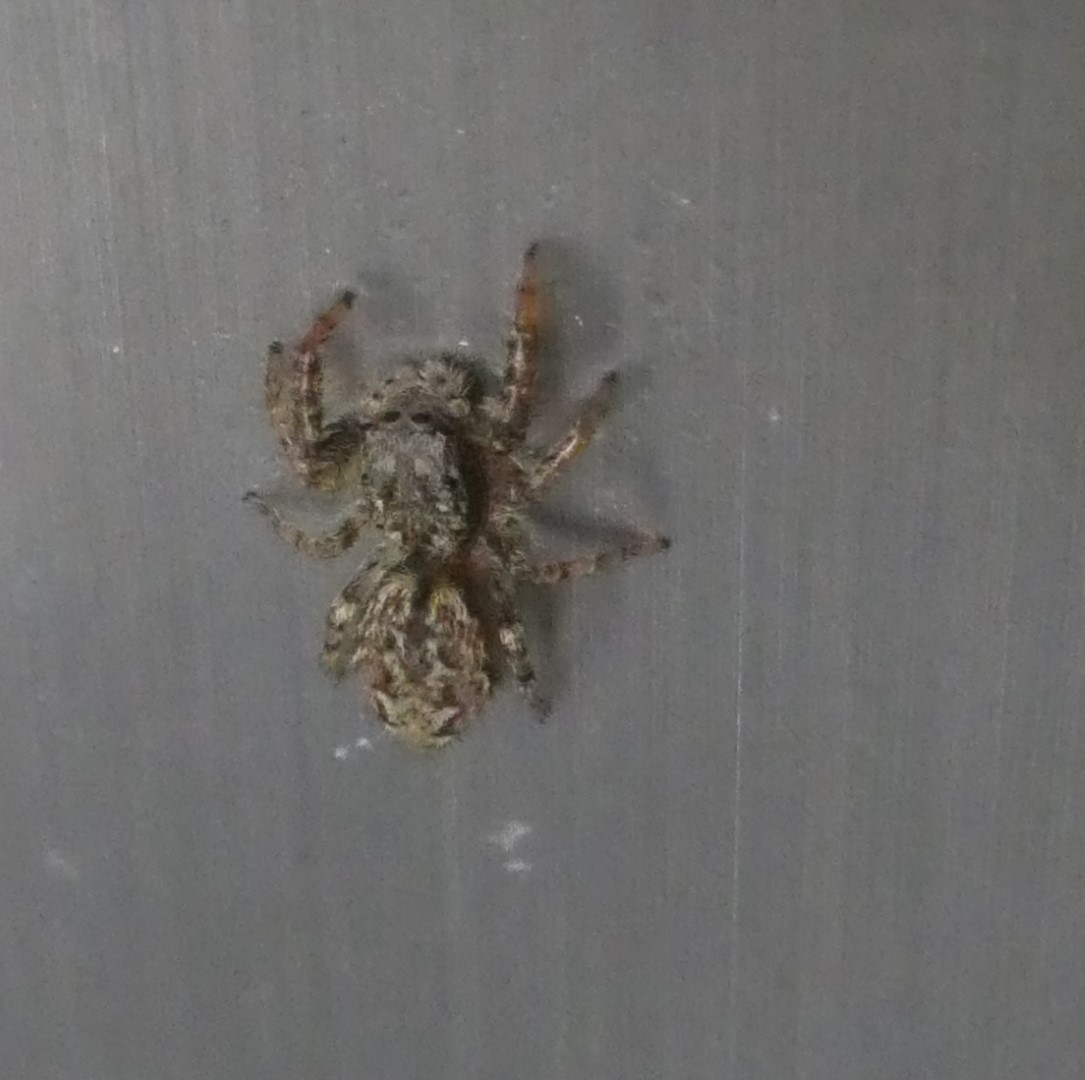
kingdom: Animalia
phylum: Arthropoda
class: Arachnida
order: Araneae
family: Salticidae
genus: Marpissa
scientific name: Marpissa muscosa
